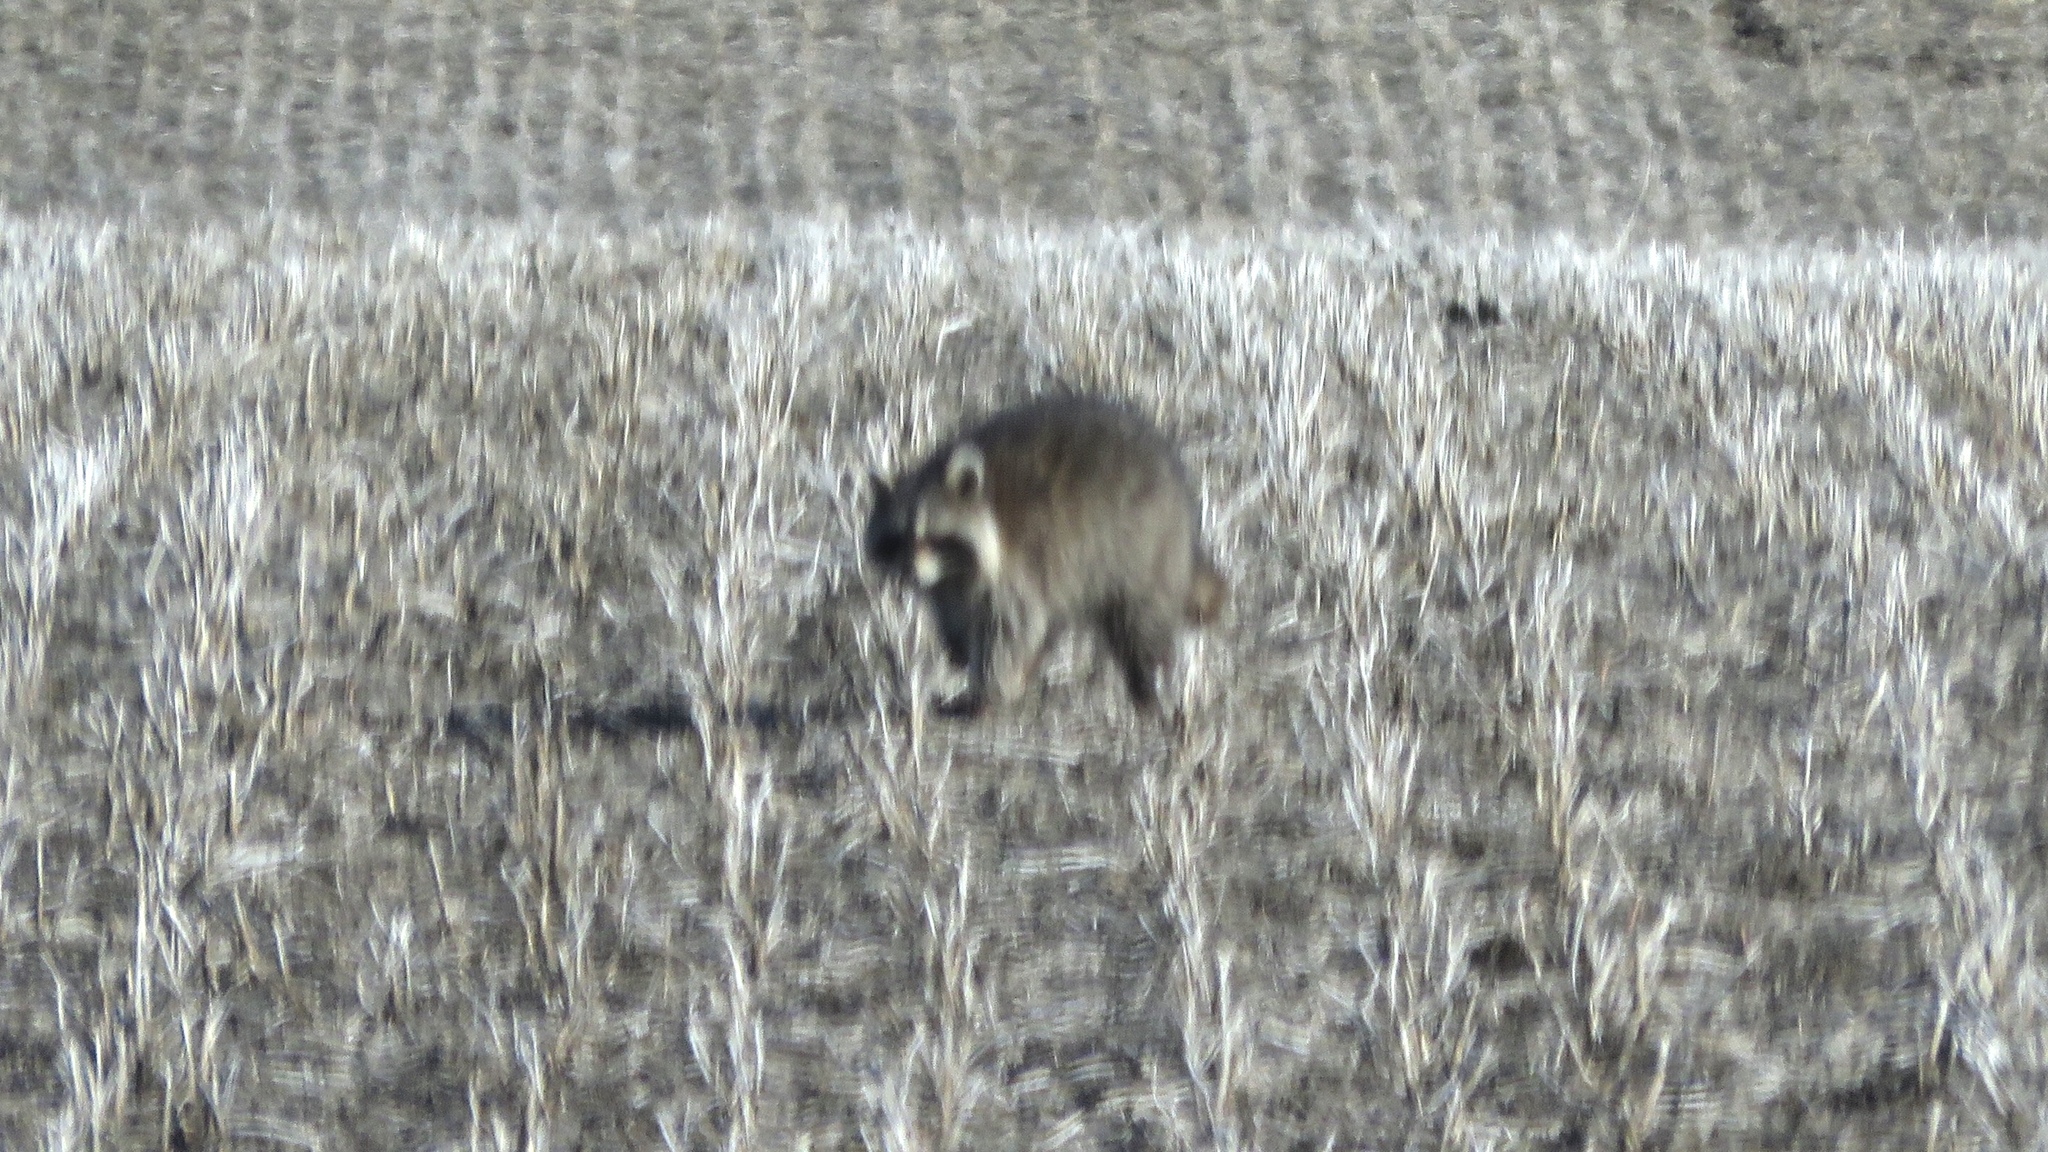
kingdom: Animalia
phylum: Chordata
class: Mammalia
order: Carnivora
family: Procyonidae
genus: Procyon
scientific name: Procyon lotor
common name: Raccoon
